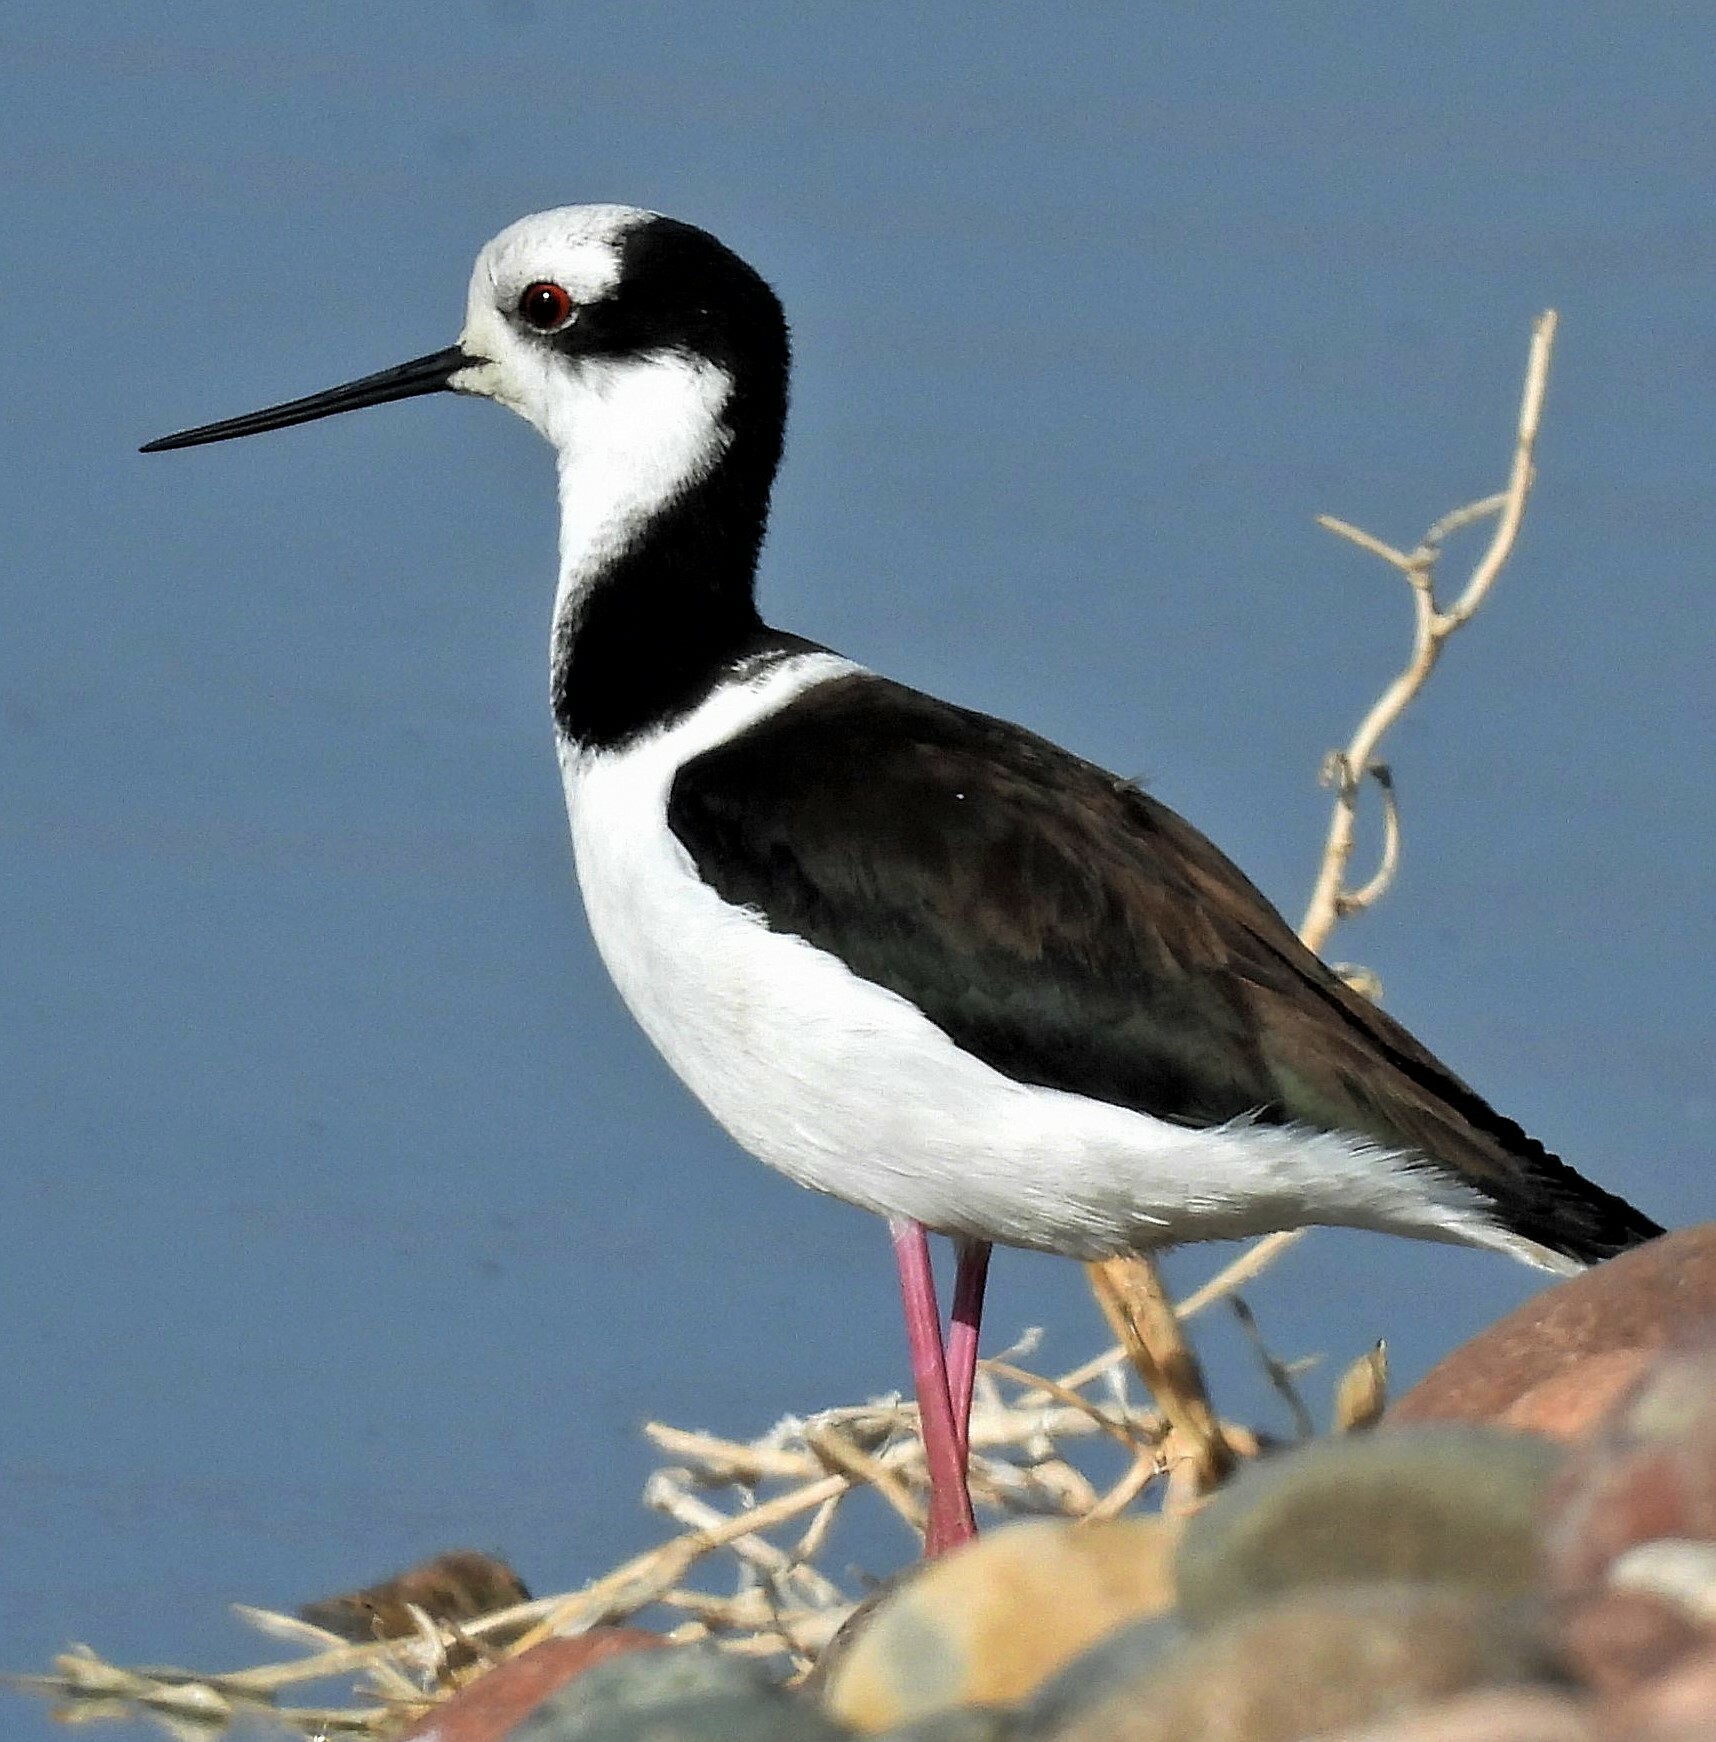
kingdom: Animalia
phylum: Chordata
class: Aves
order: Charadriiformes
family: Recurvirostridae
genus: Himantopus
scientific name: Himantopus mexicanus
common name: Black-necked stilt
